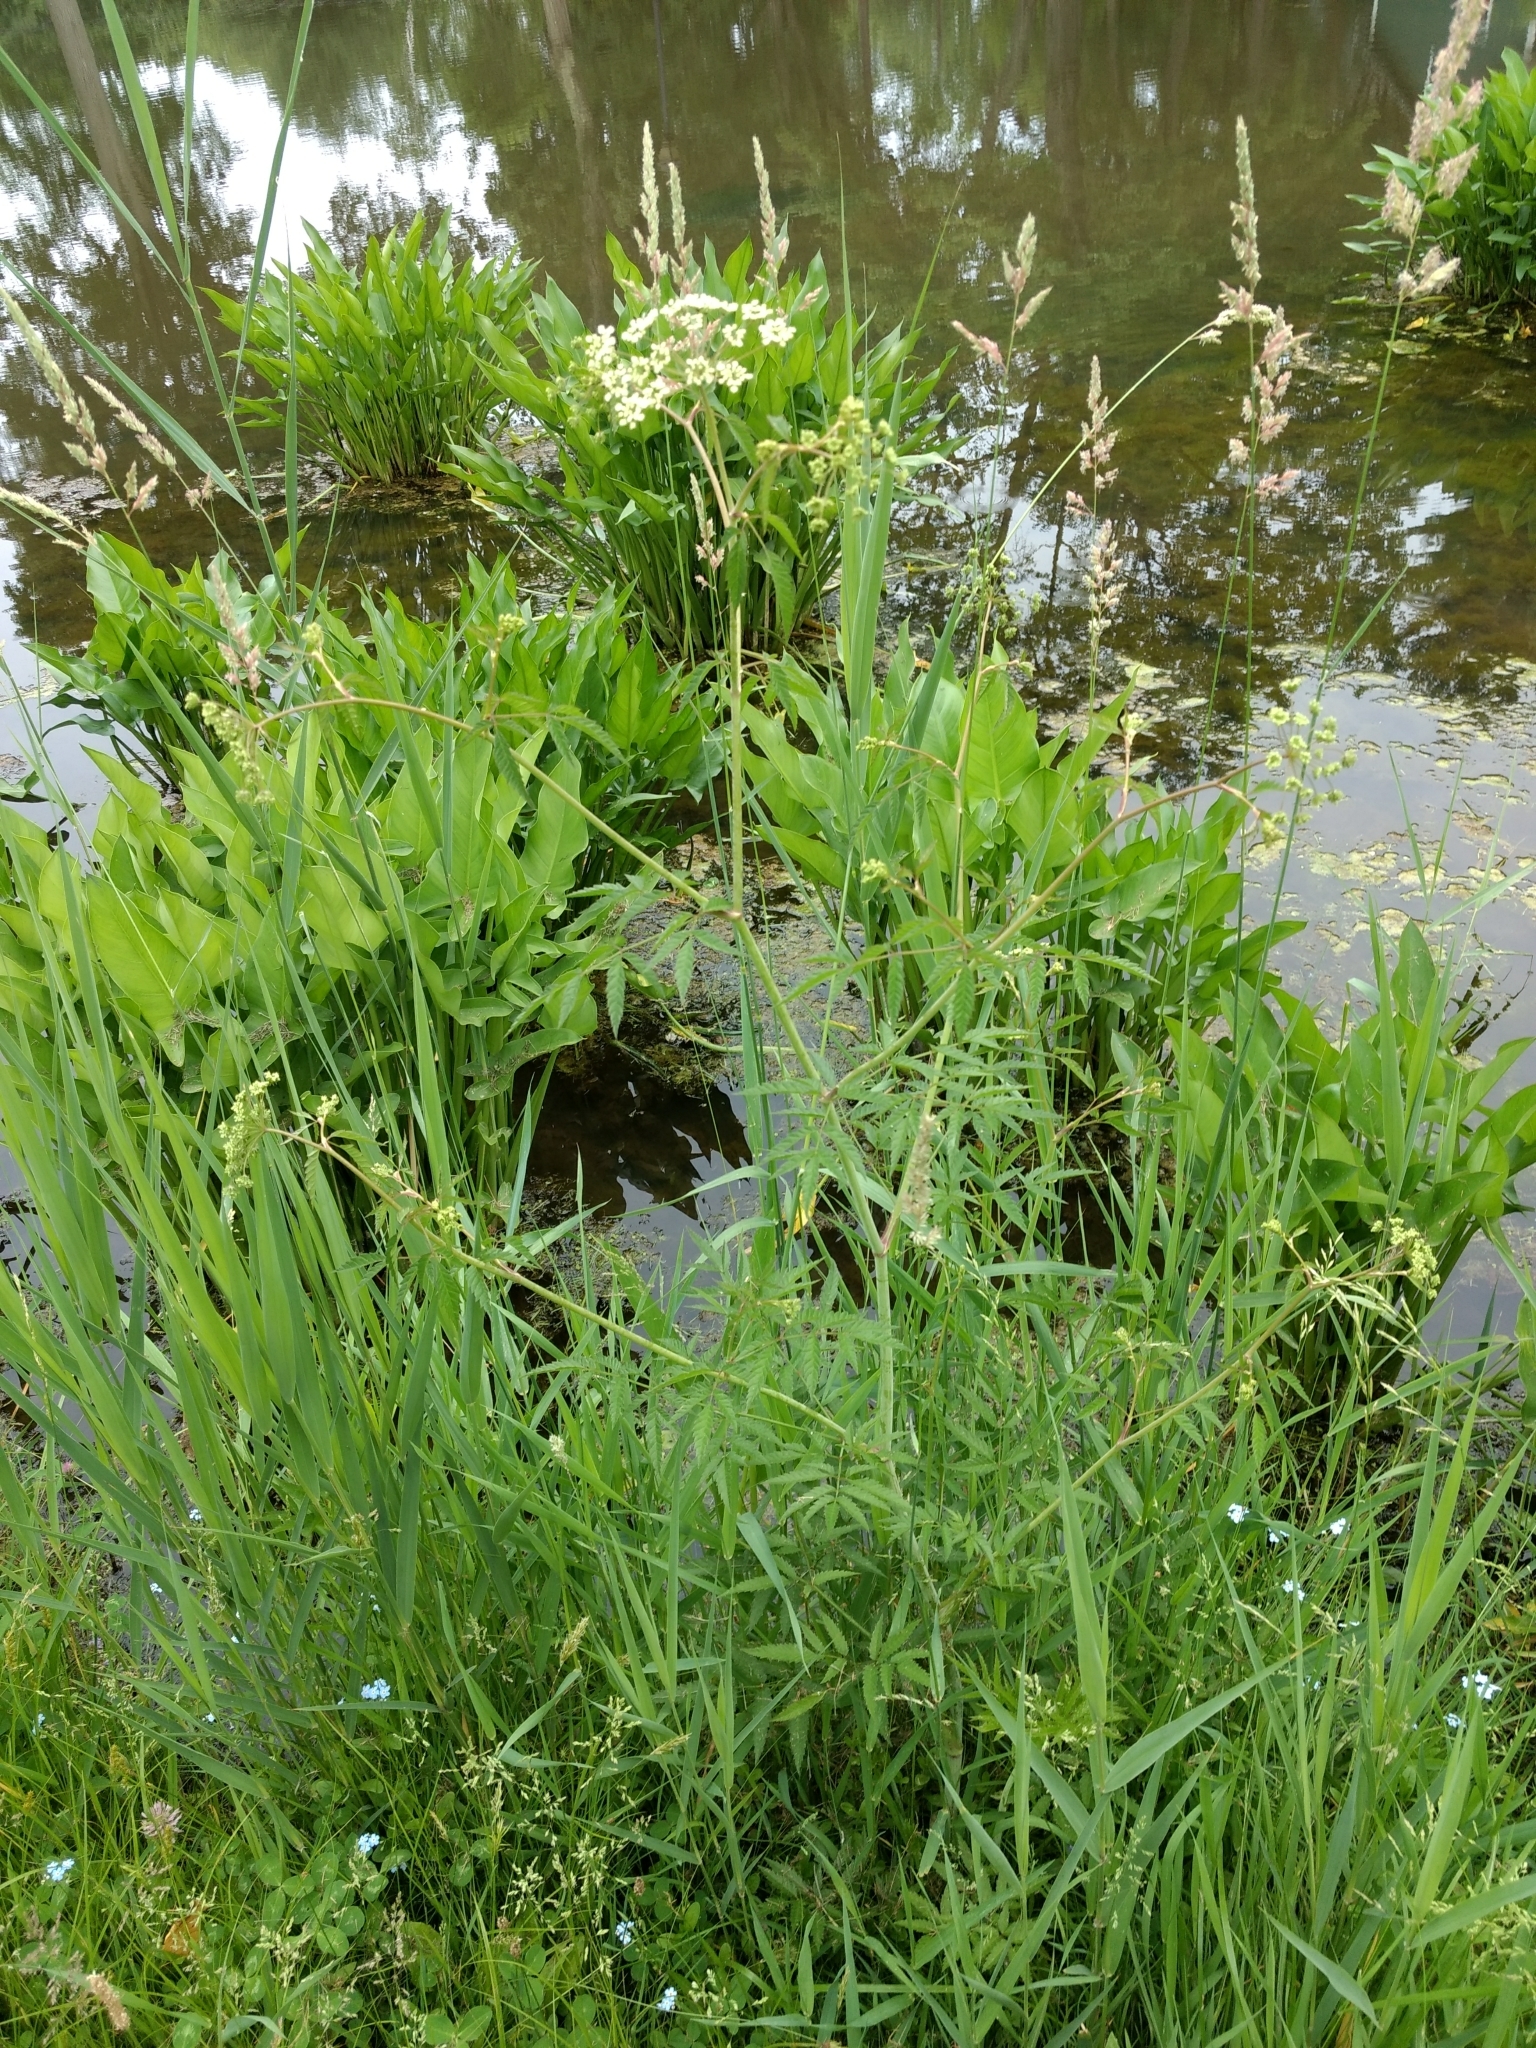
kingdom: Plantae
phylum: Tracheophyta
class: Magnoliopsida
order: Apiales
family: Apiaceae
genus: Cicuta
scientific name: Cicuta maculata
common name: Spotted cowbane
